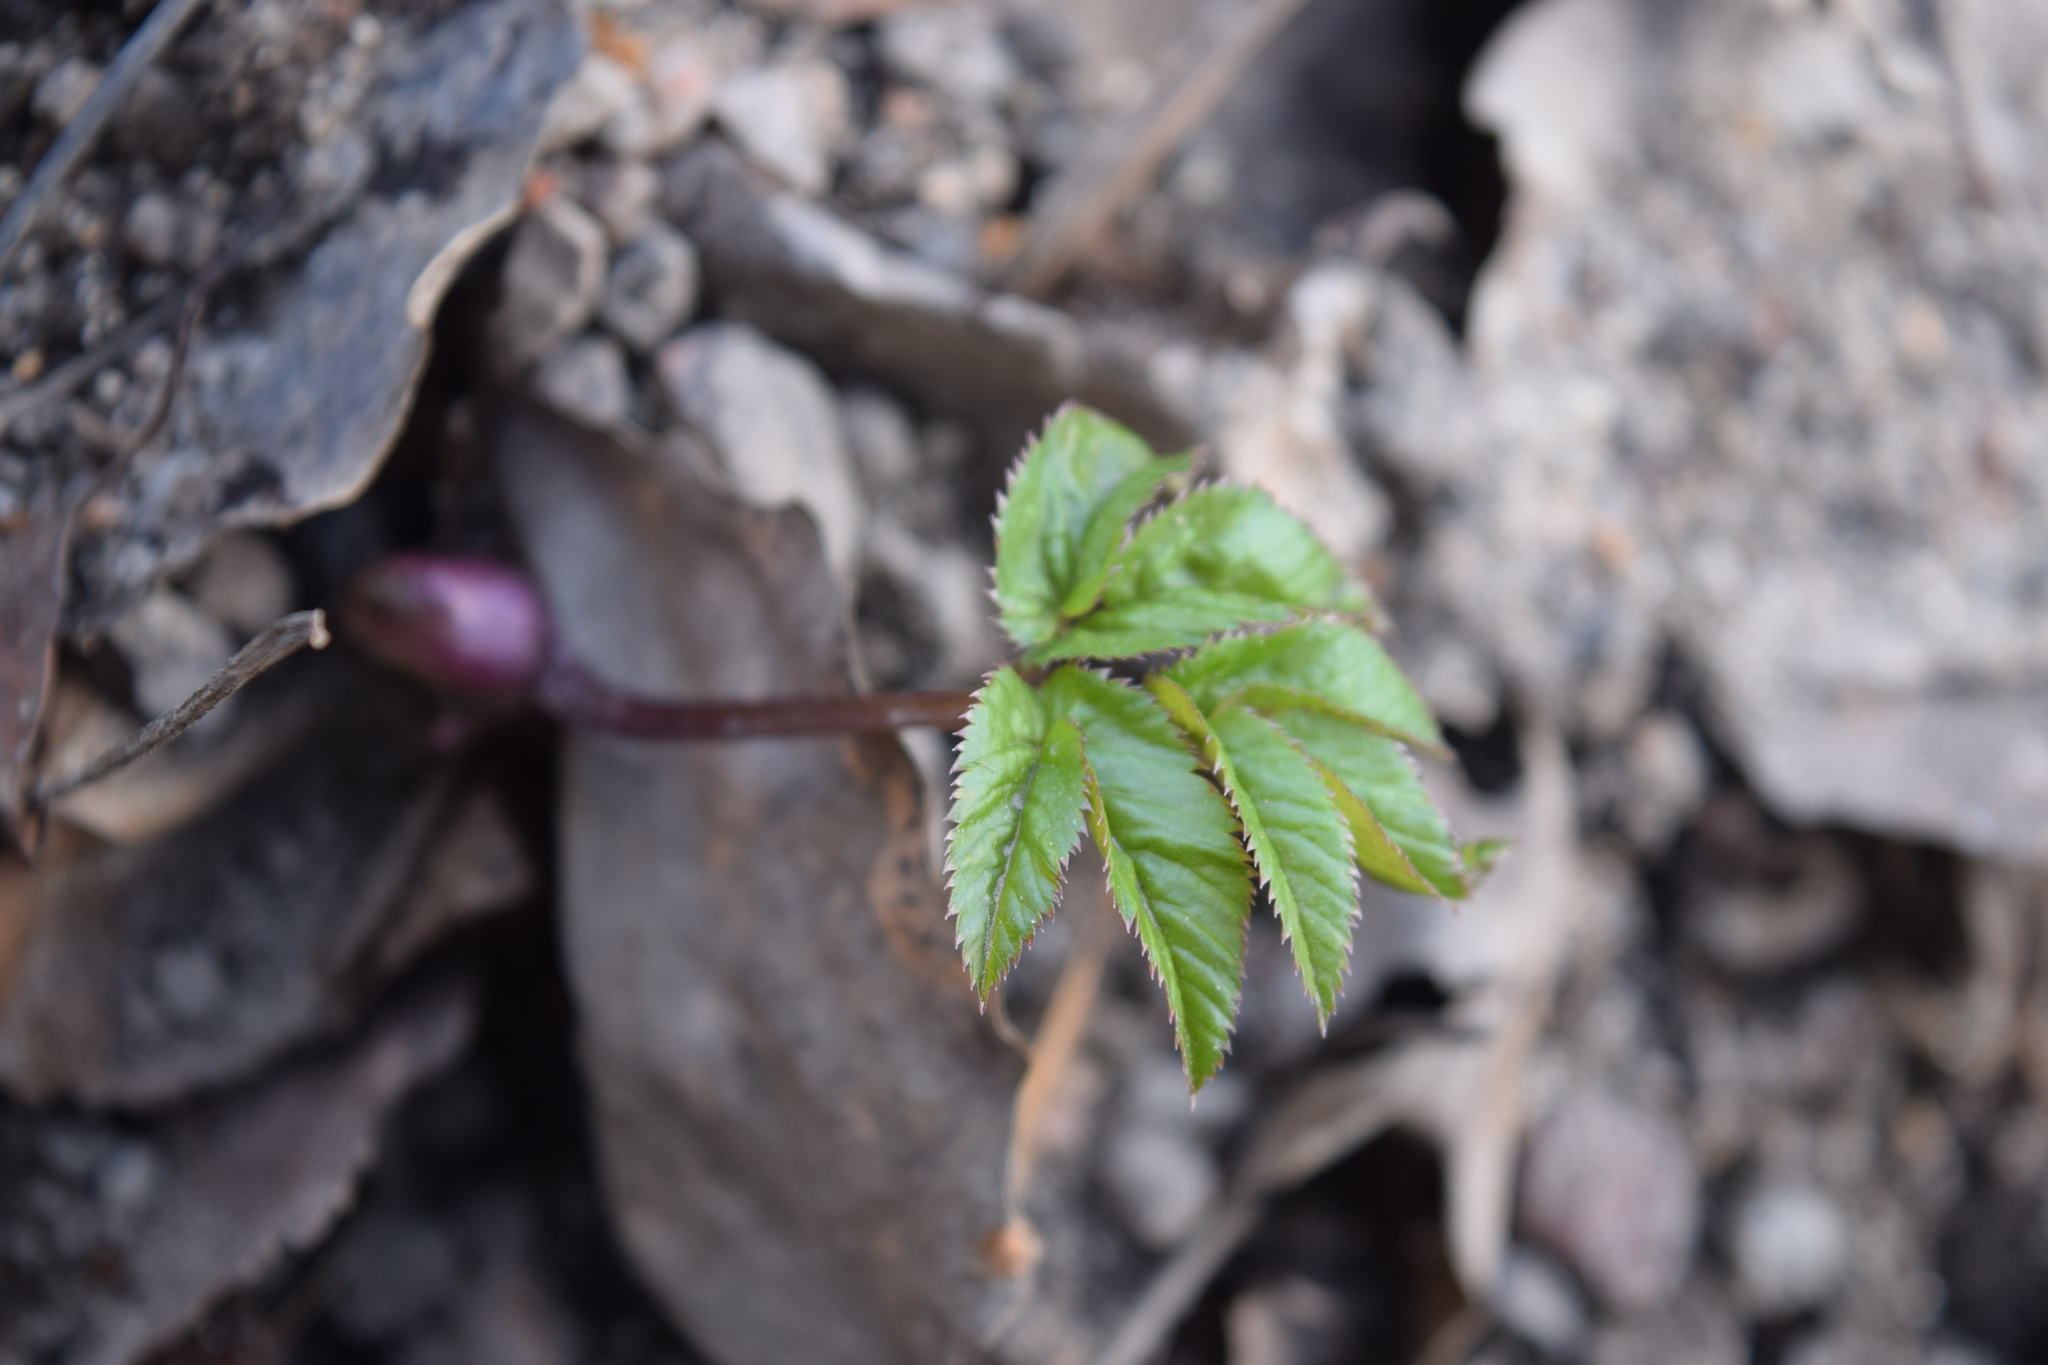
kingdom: Plantae
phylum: Tracheophyta
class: Magnoliopsida
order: Apiales
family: Apiaceae
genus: Aegopodium
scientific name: Aegopodium podagraria
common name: Ground-elder
